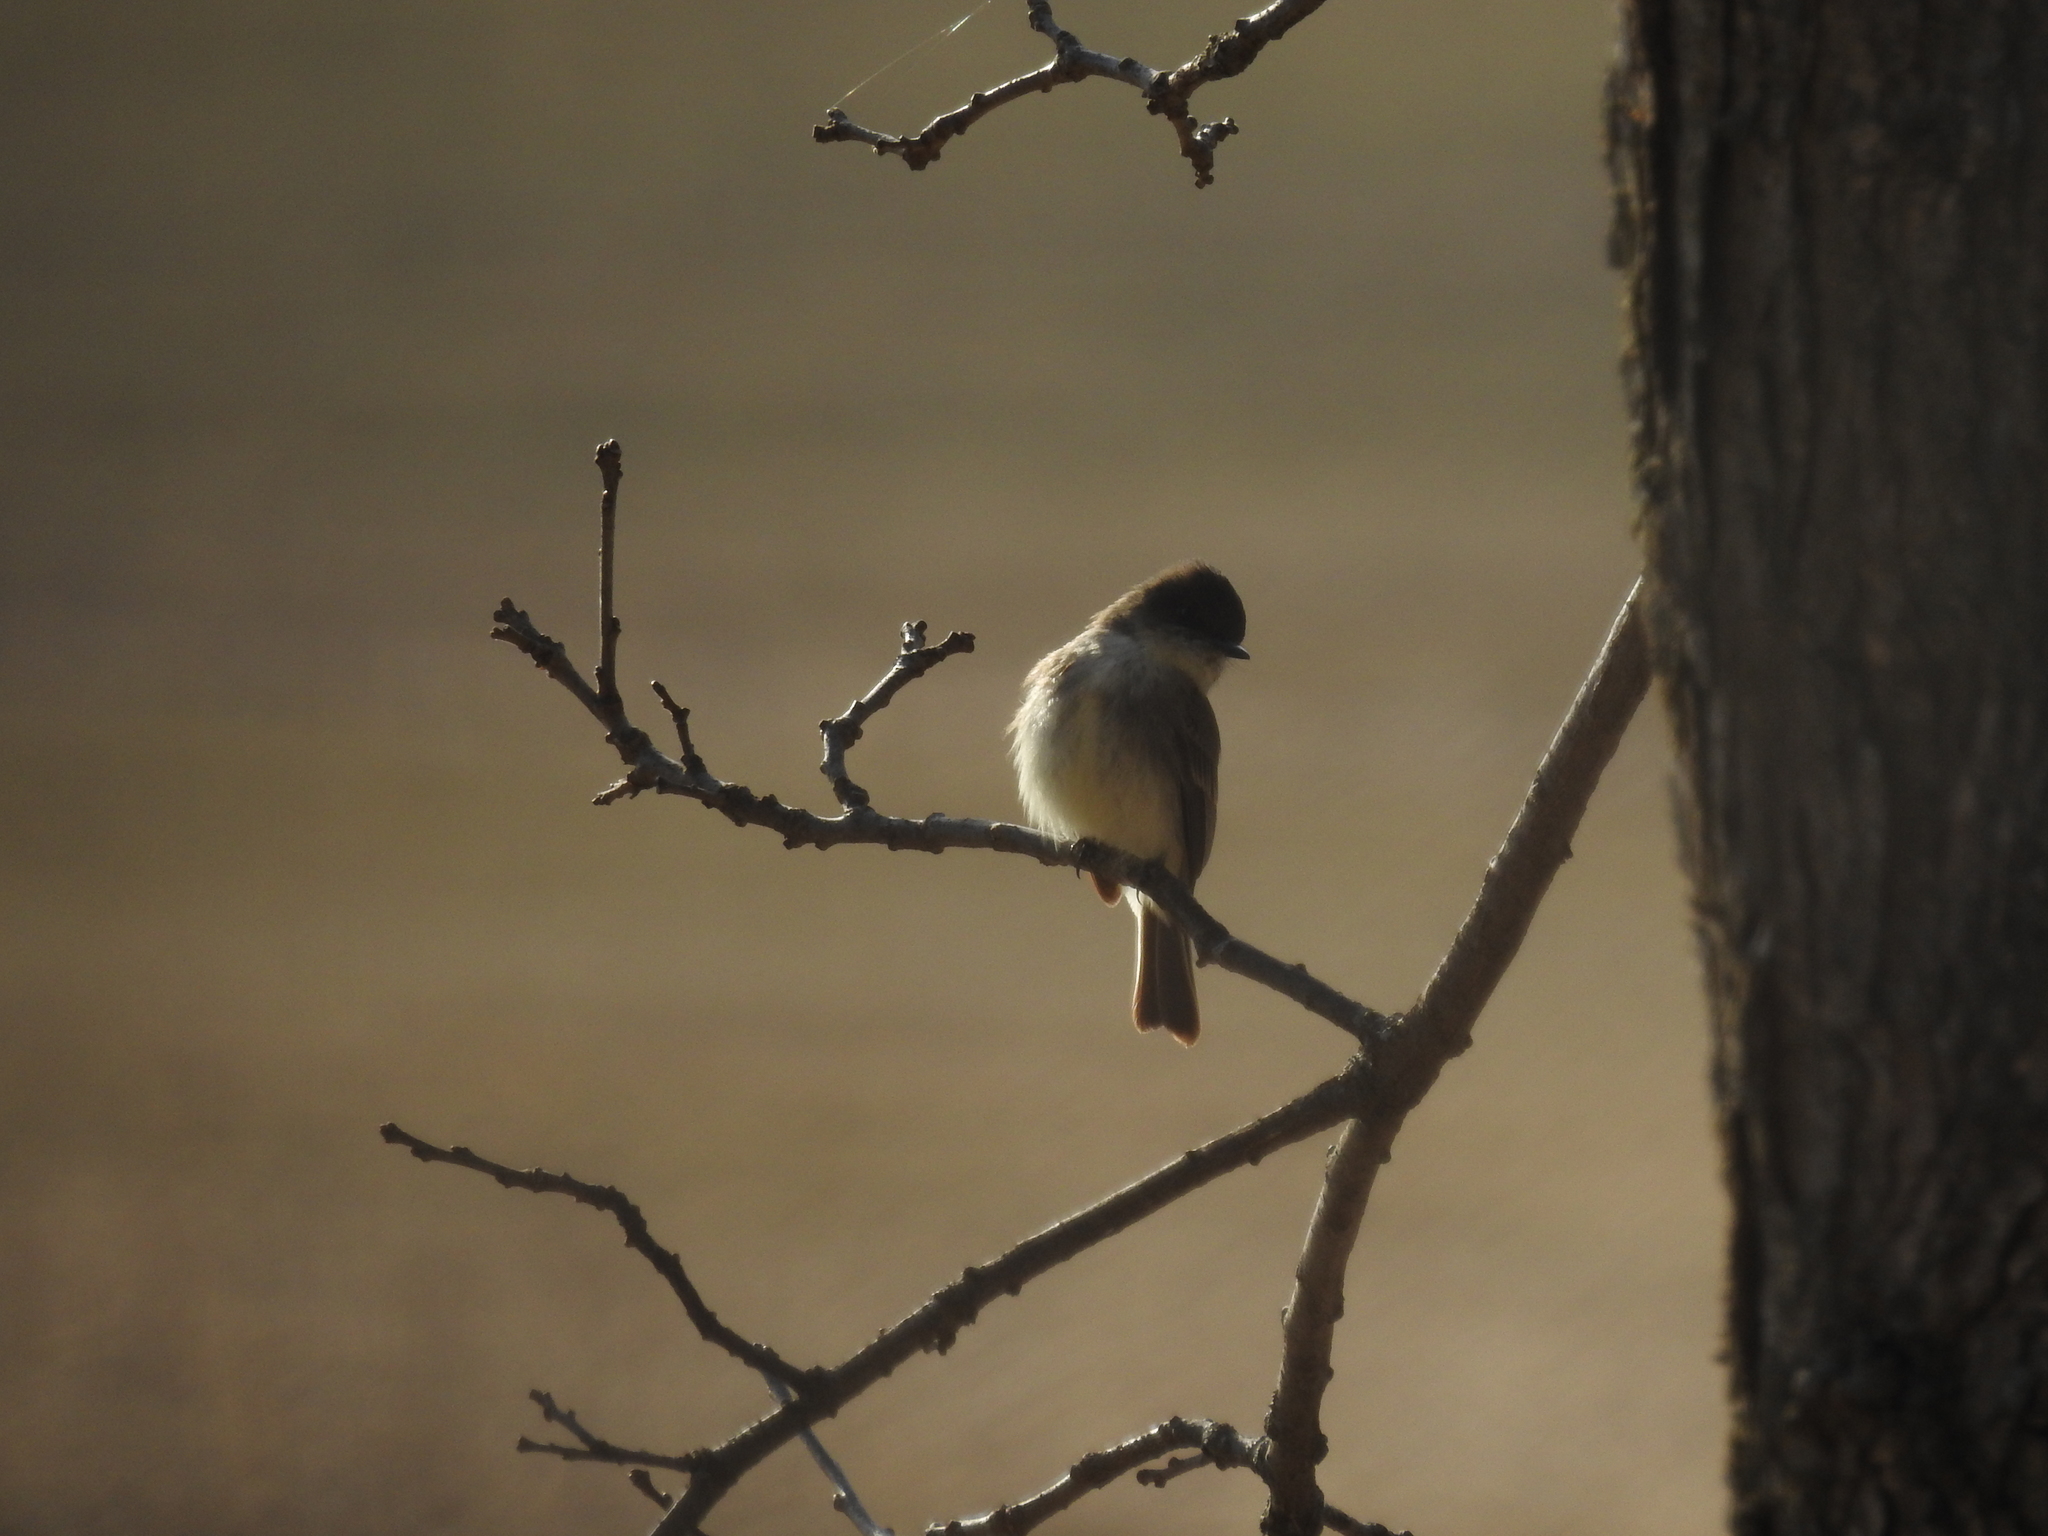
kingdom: Animalia
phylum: Chordata
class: Aves
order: Passeriformes
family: Tyrannidae
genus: Sayornis
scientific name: Sayornis phoebe
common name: Eastern phoebe
